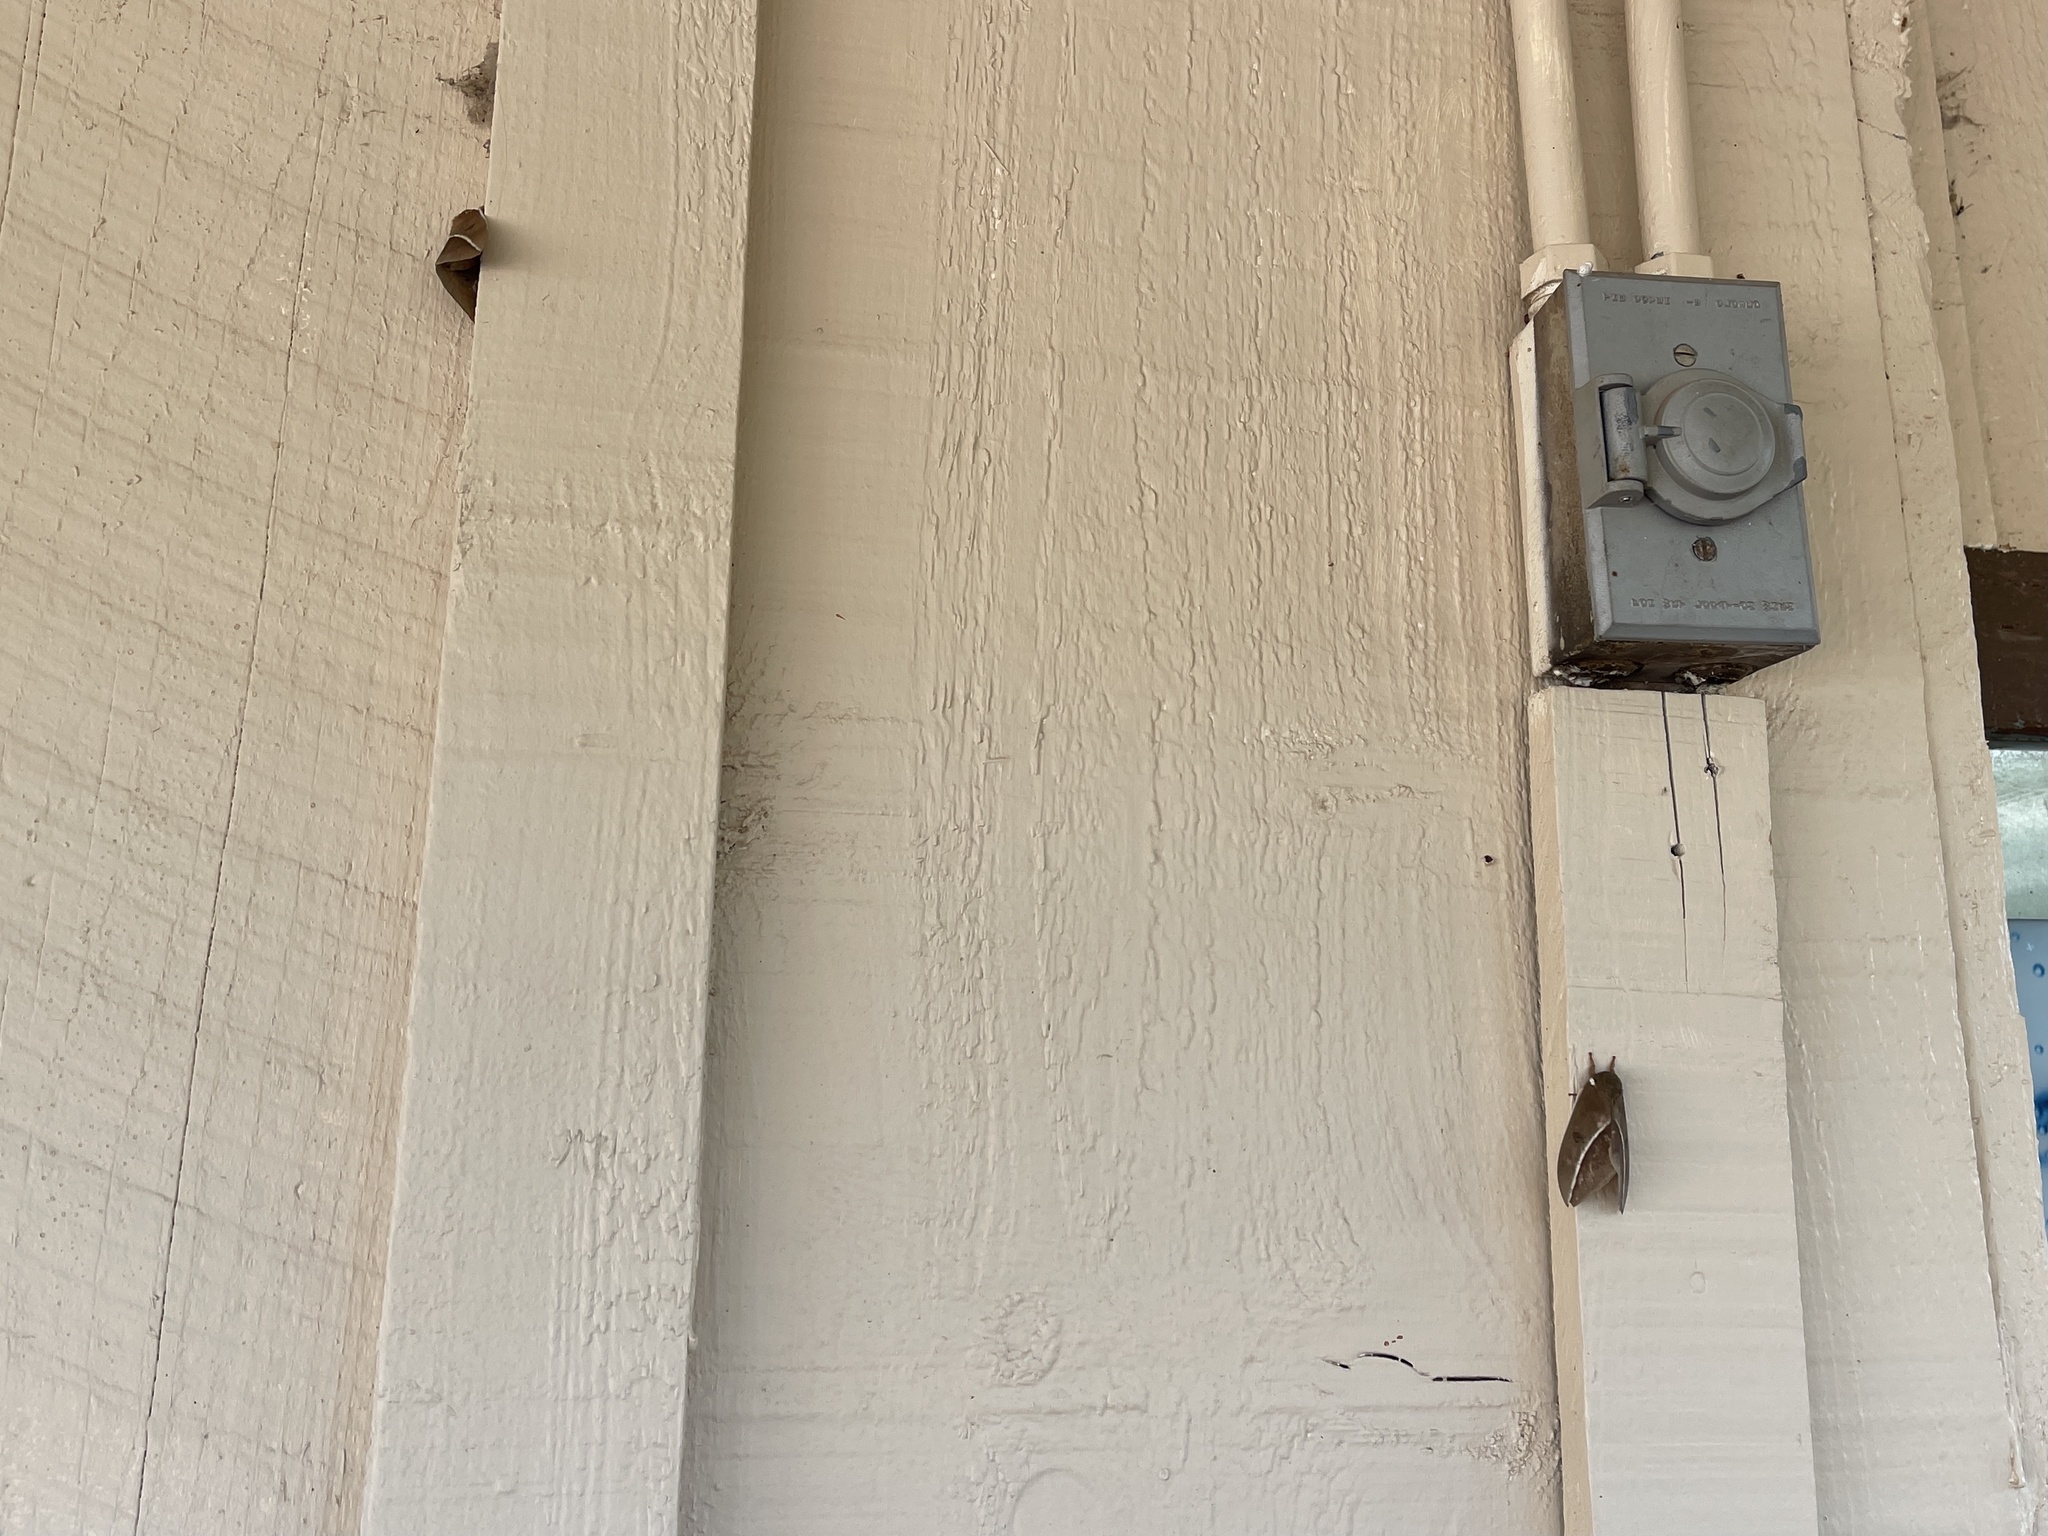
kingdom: Animalia
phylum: Arthropoda
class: Insecta
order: Lepidoptera
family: Saturniidae
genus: Automeris
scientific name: Automeris zephyria
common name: Zephyr eyed silkmoth
